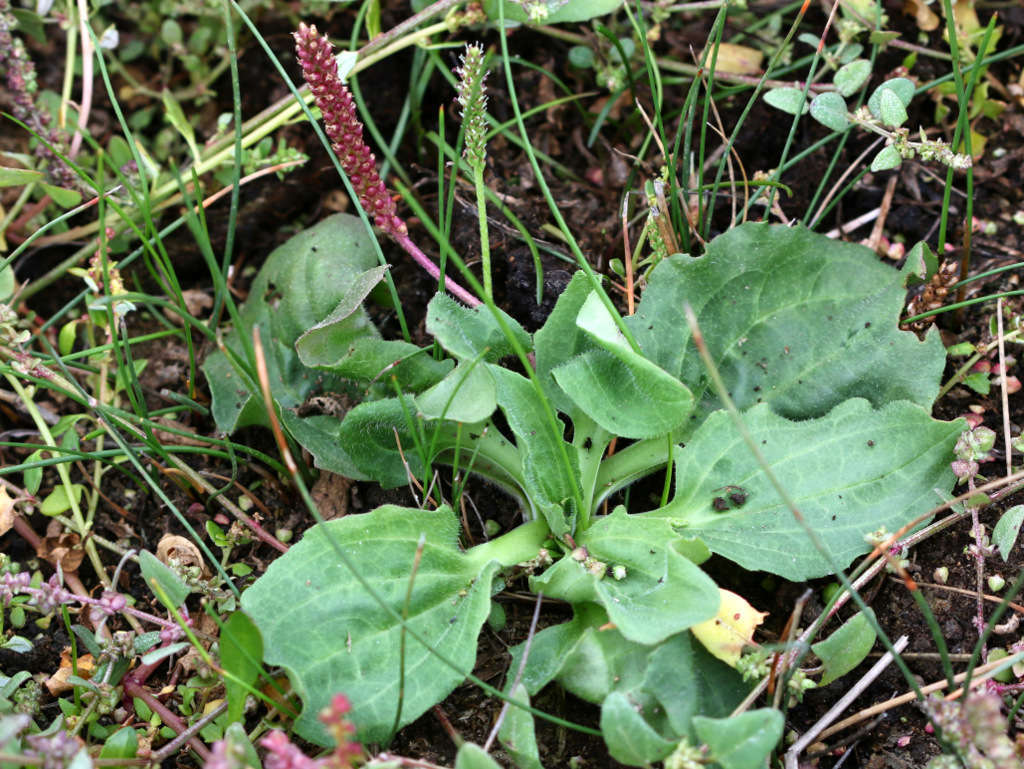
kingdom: Plantae
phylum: Tracheophyta
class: Magnoliopsida
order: Lamiales
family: Plantaginaceae
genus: Plantago
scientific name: Plantago major
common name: Common plantain
